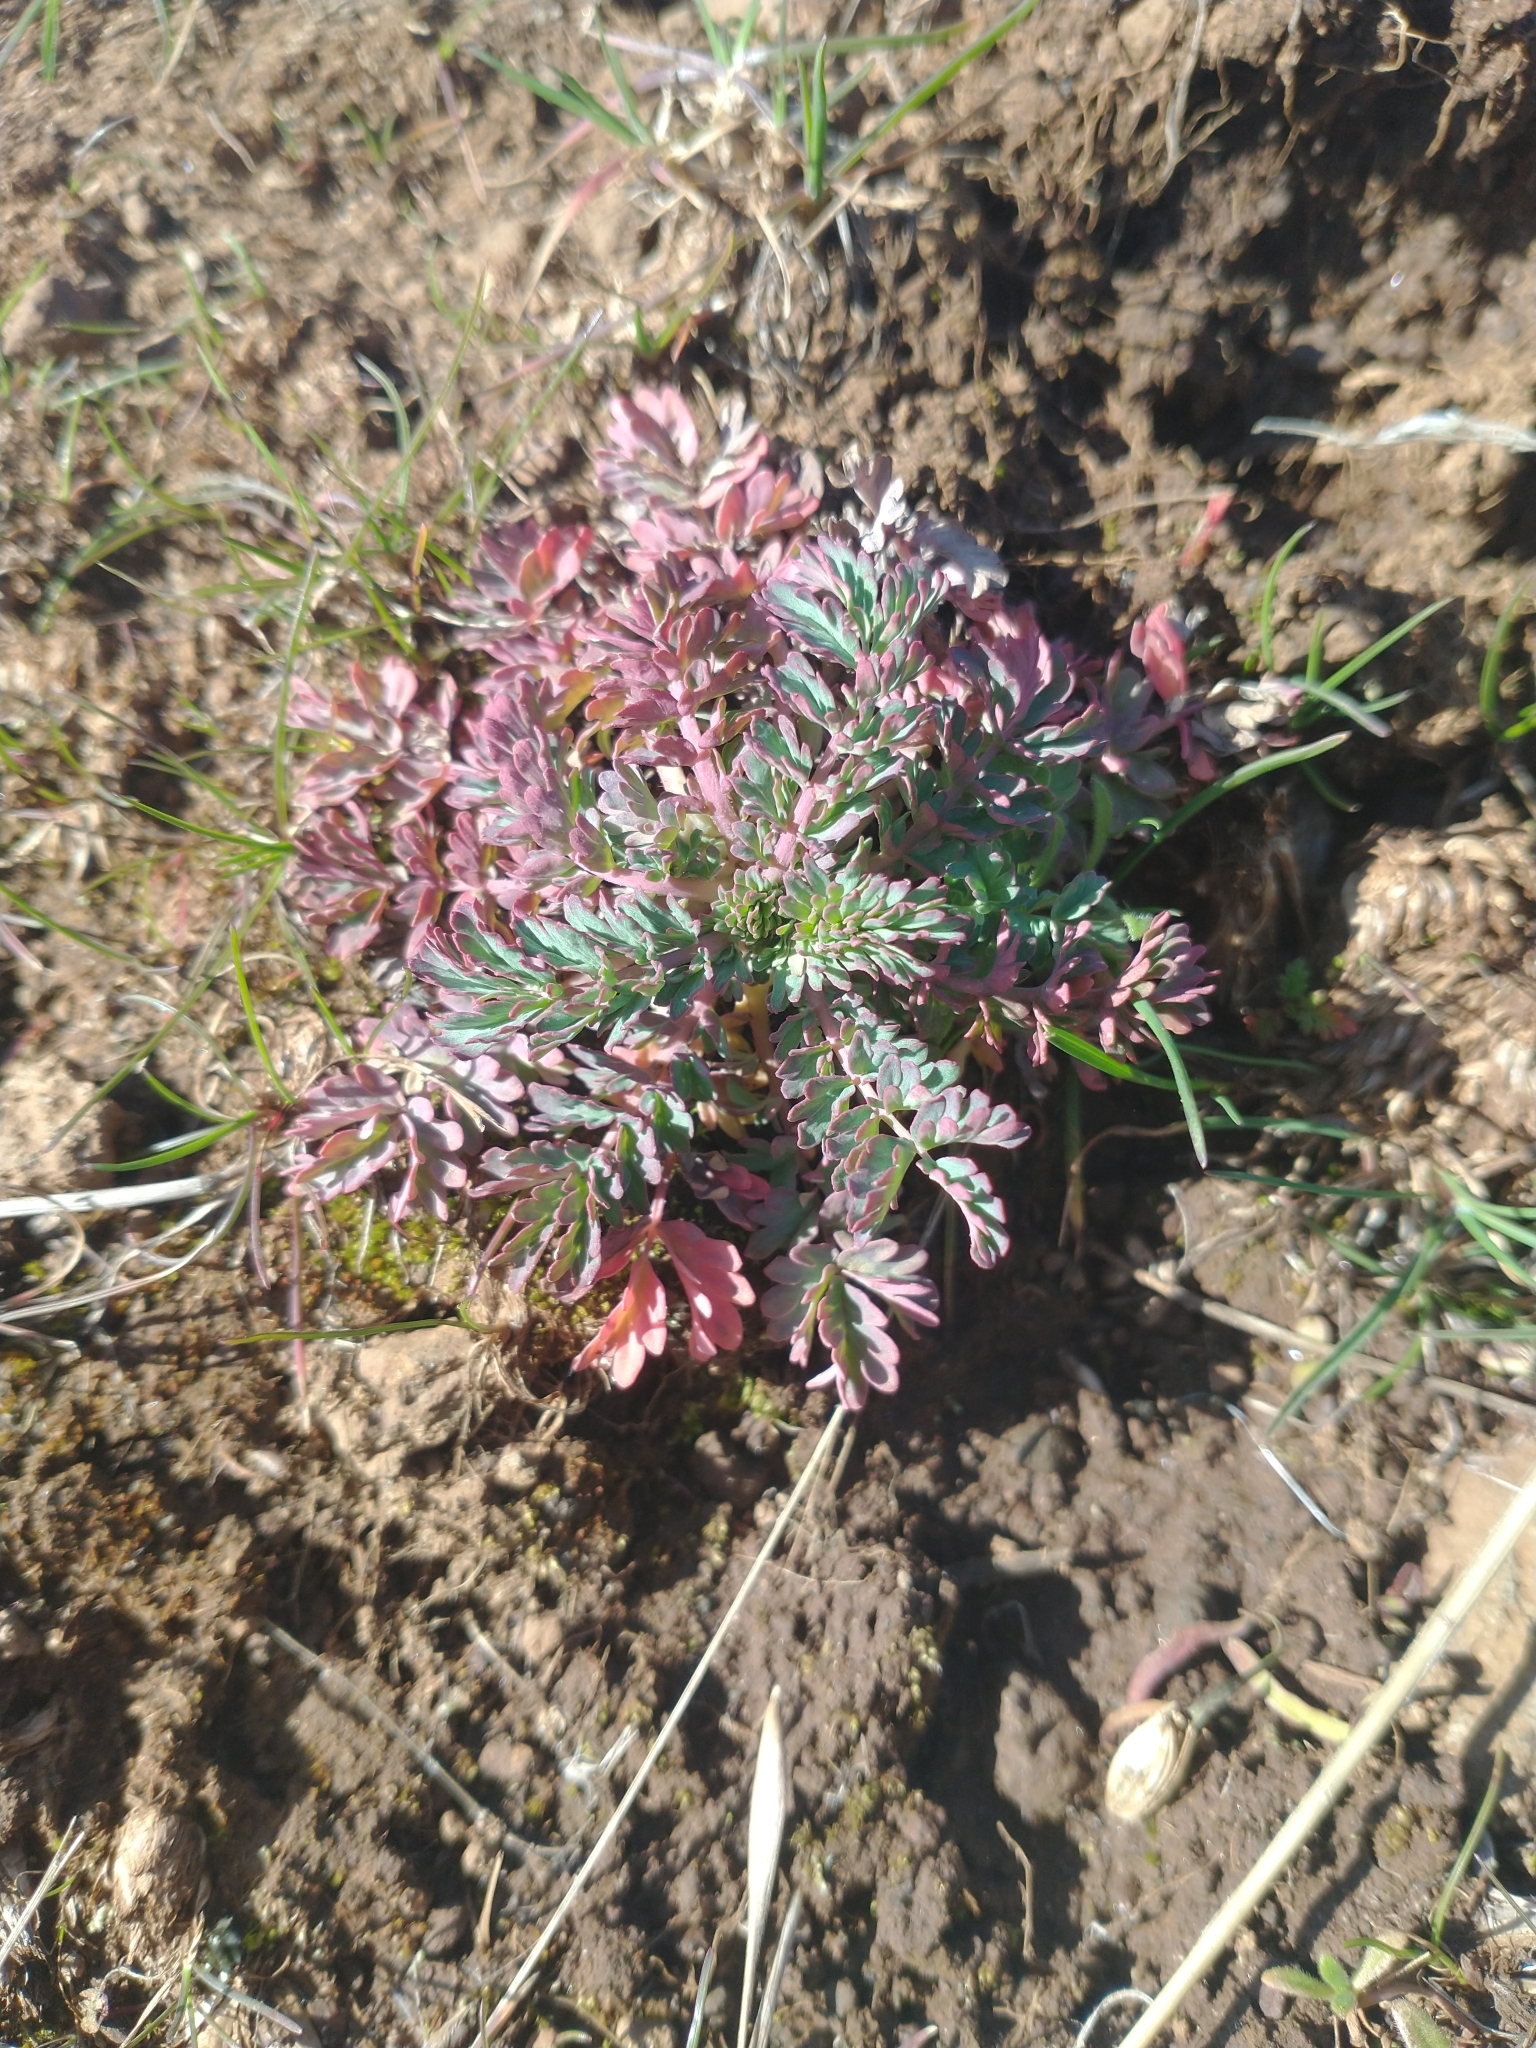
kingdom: Plantae
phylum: Tracheophyta
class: Magnoliopsida
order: Rosales
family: Rosaceae
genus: Poterium
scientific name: Poterium sanguisorba
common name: Salad burnet
